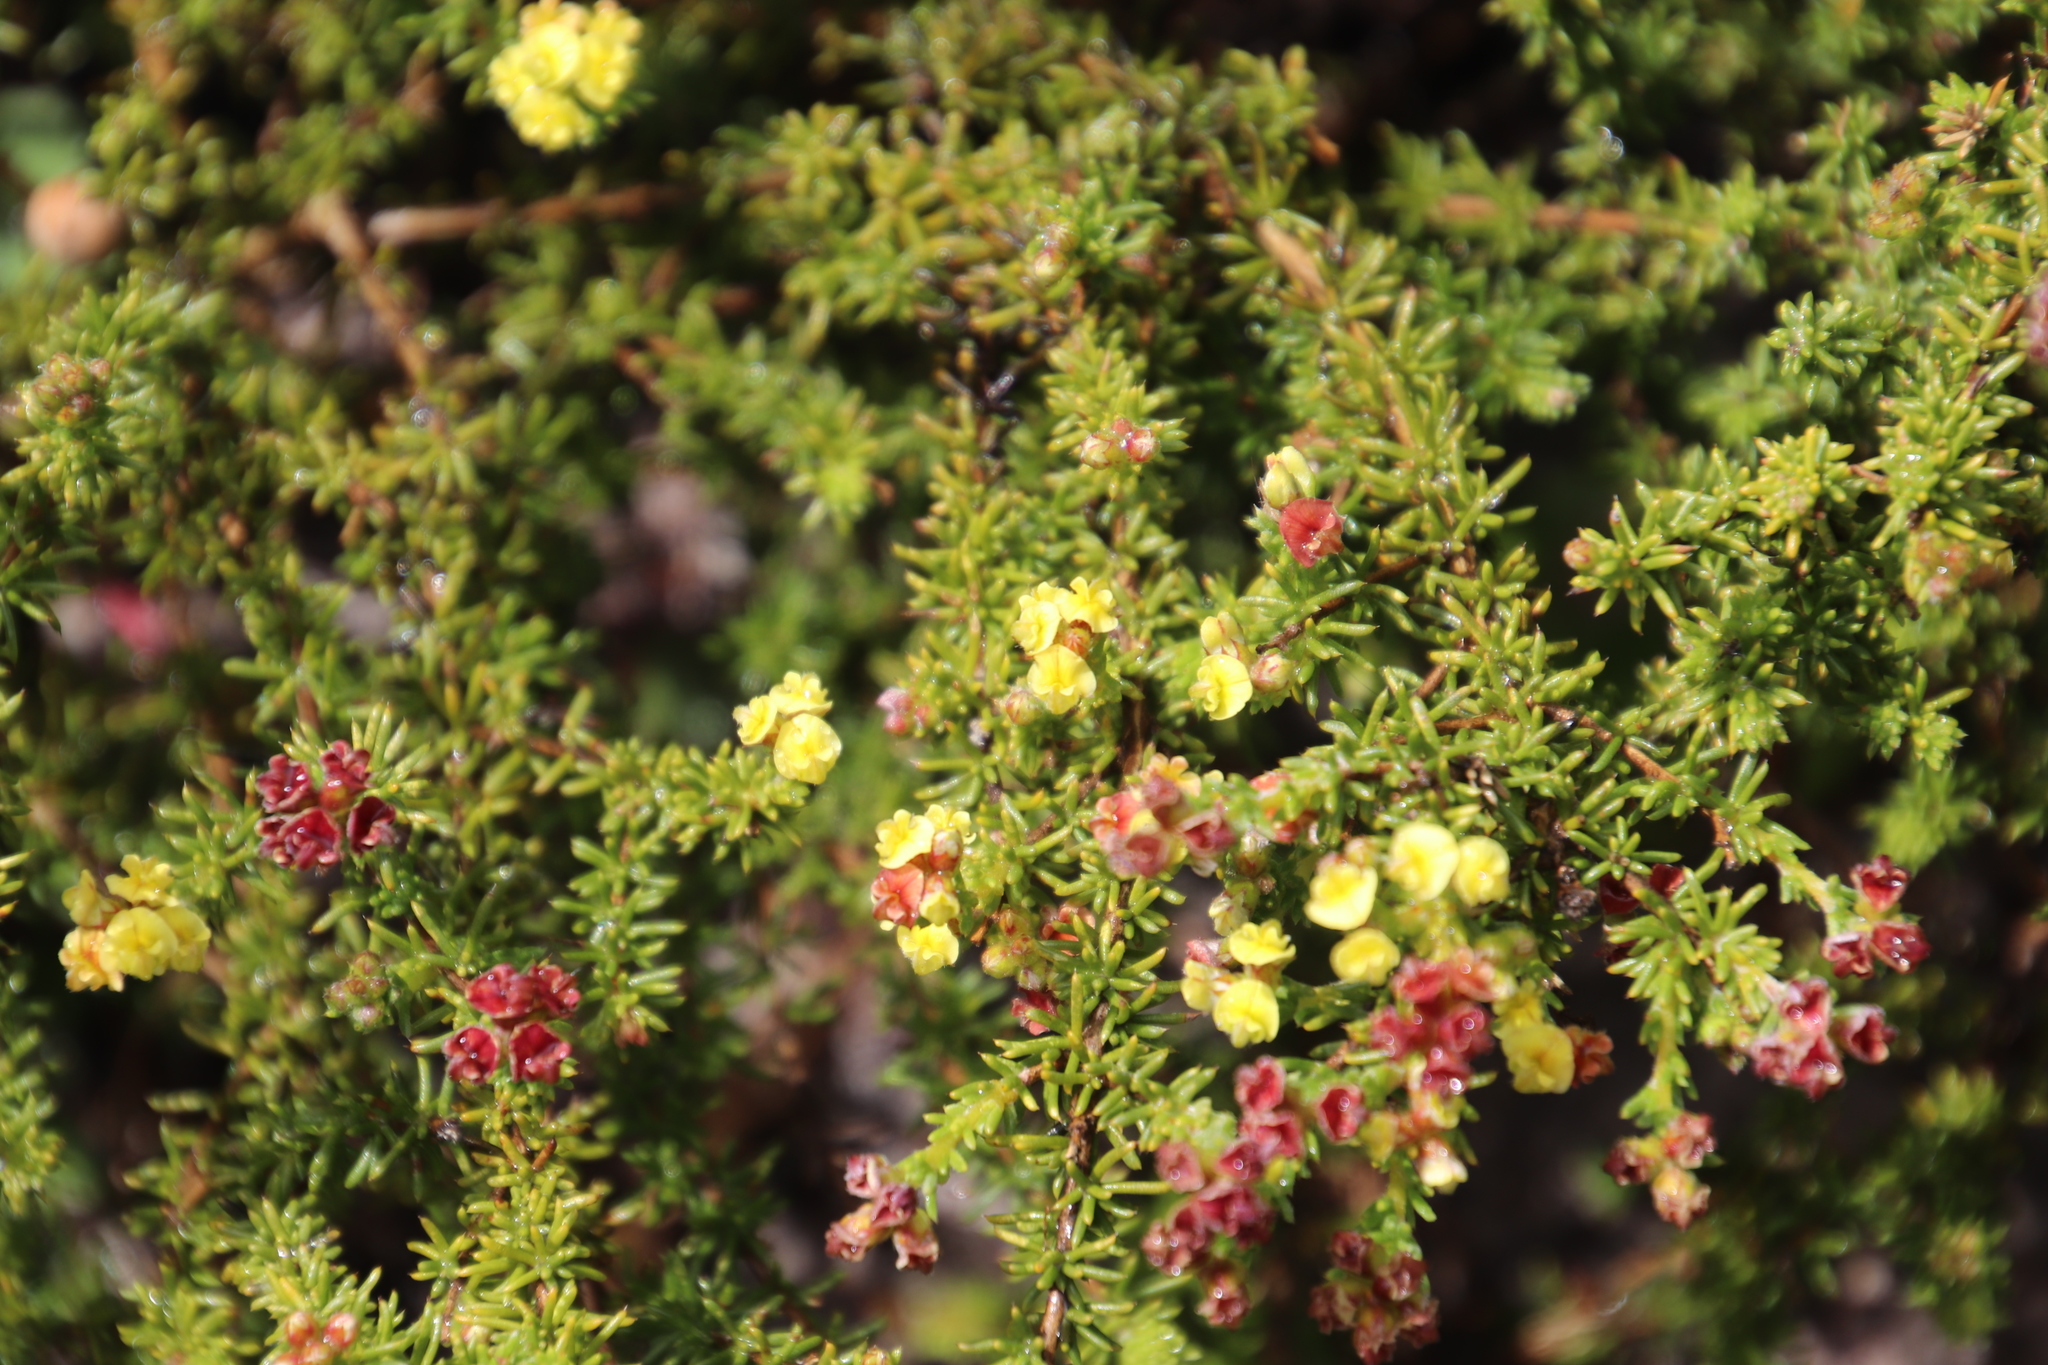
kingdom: Plantae
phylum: Tracheophyta
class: Magnoliopsida
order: Fabales
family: Fabaceae
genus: Aspalathus
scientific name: Aspalathus albens
